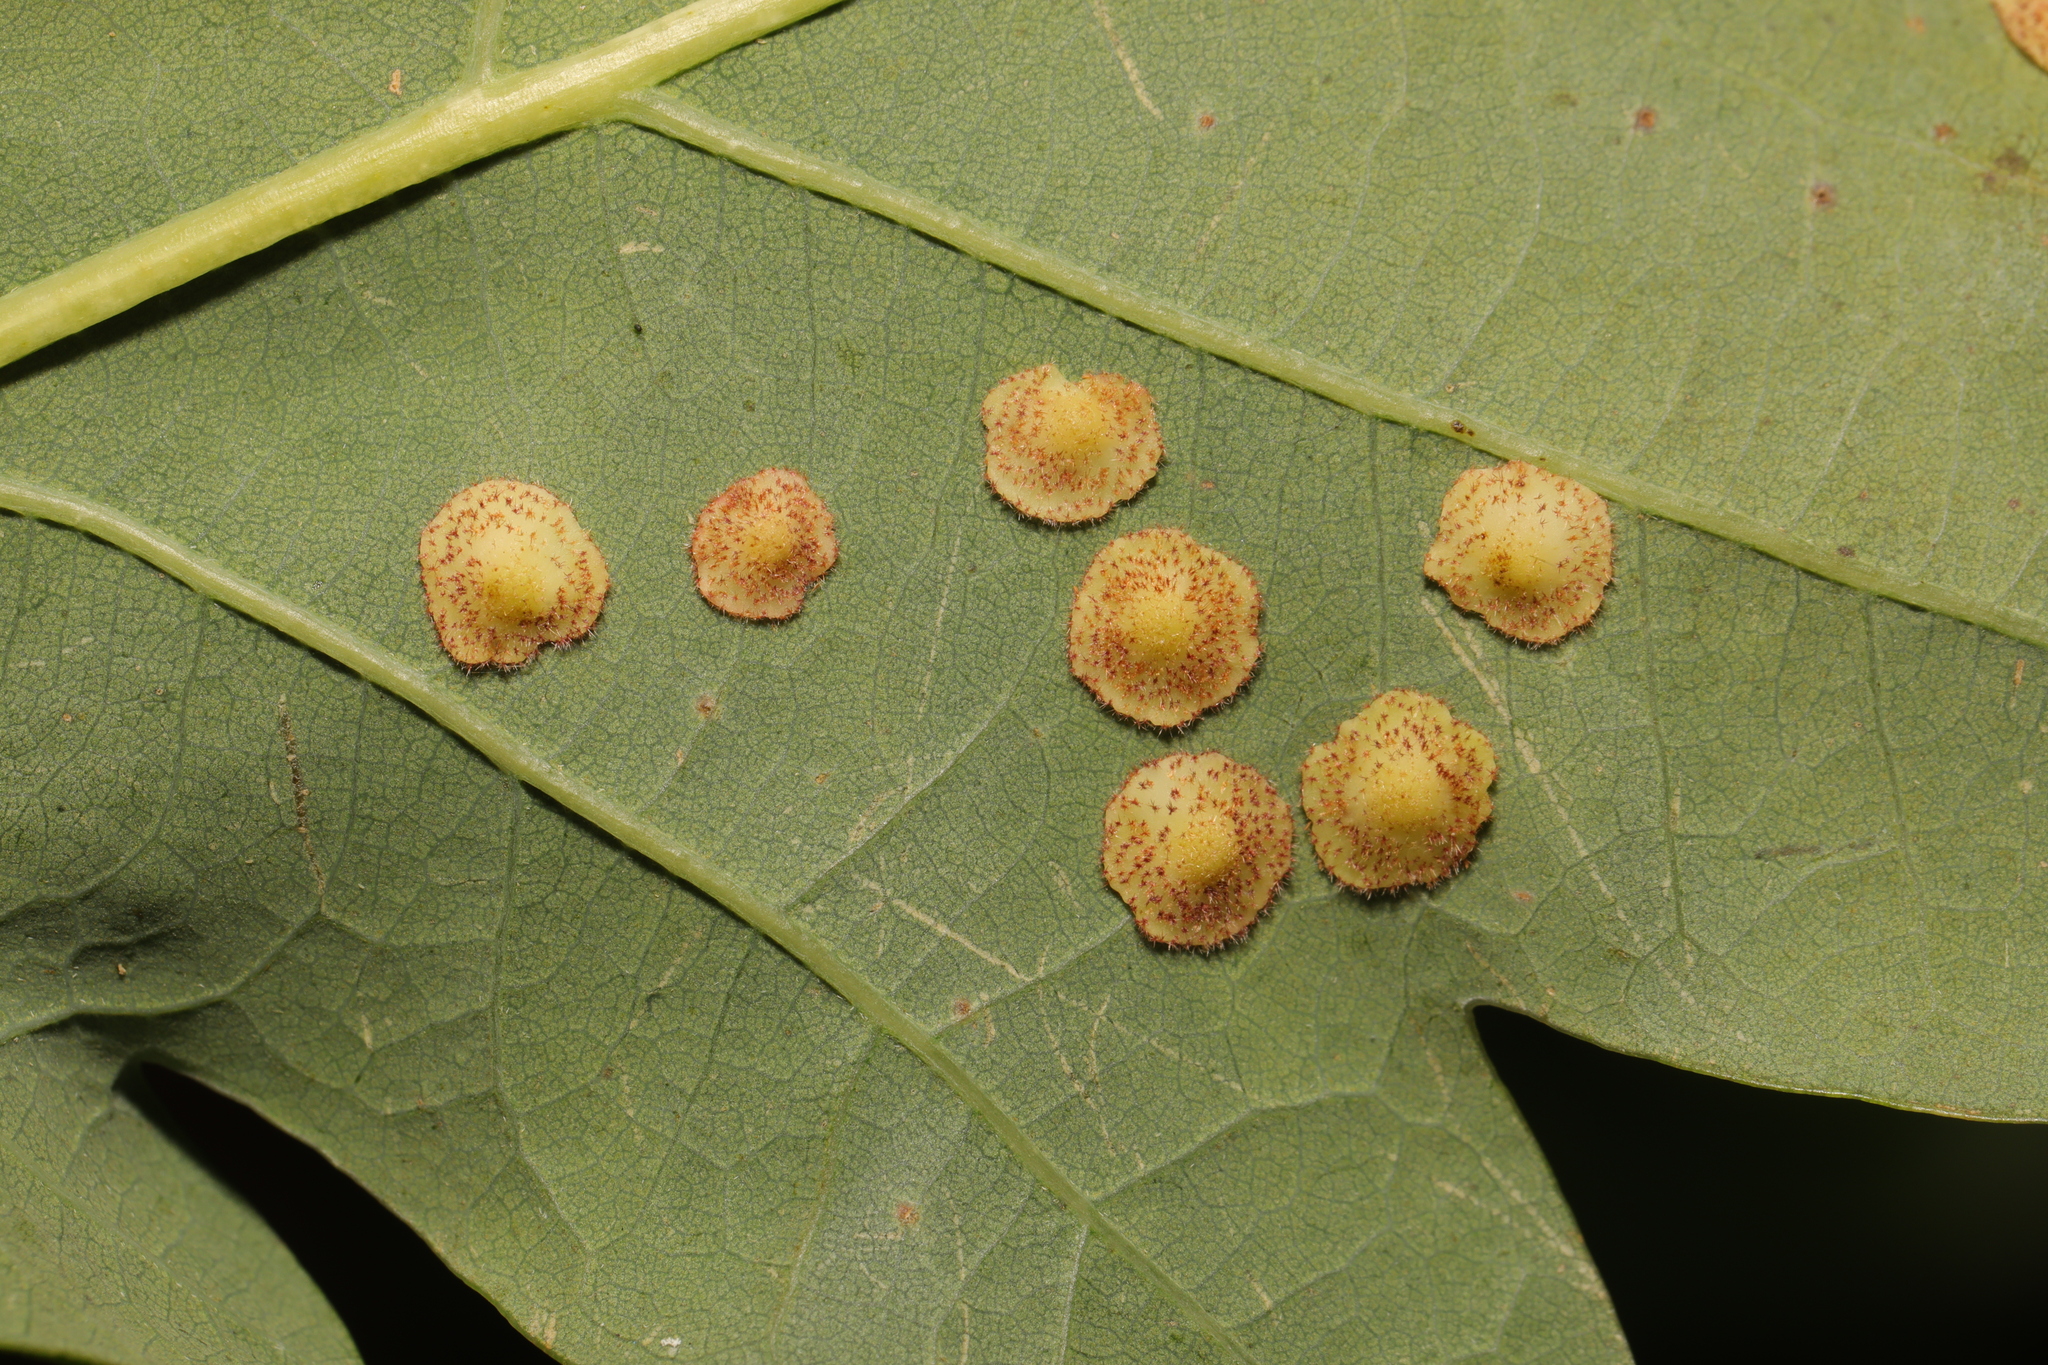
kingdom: Animalia
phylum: Arthropoda
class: Insecta
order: Hymenoptera
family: Cynipidae
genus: Neuroterus
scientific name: Neuroterus quercusbaccarum
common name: Common spangle gall
